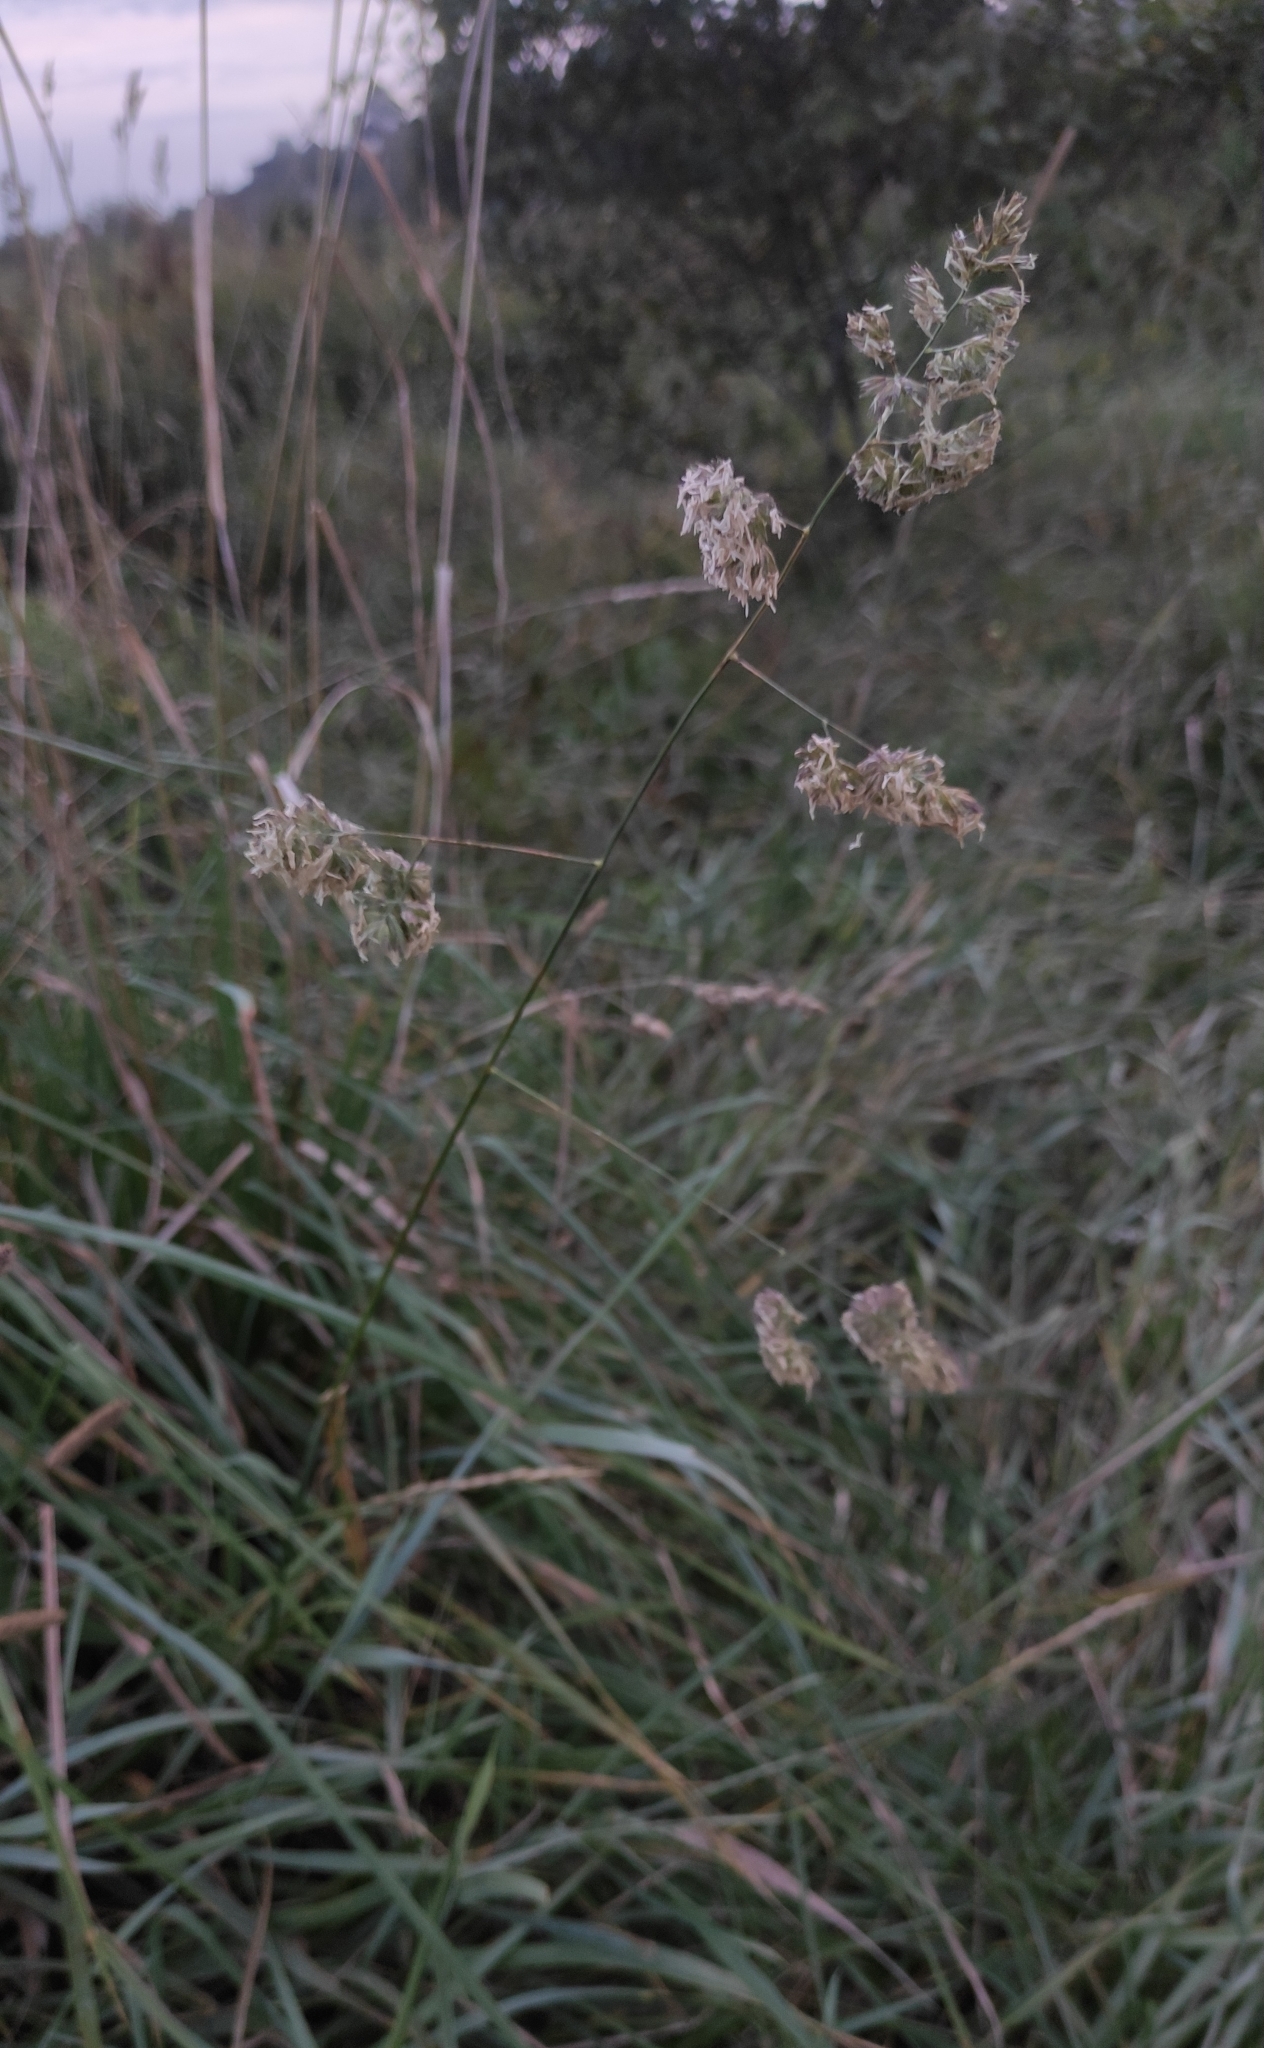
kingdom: Plantae
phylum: Tracheophyta
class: Liliopsida
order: Poales
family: Poaceae
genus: Dactylis
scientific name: Dactylis glomerata
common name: Orchardgrass
